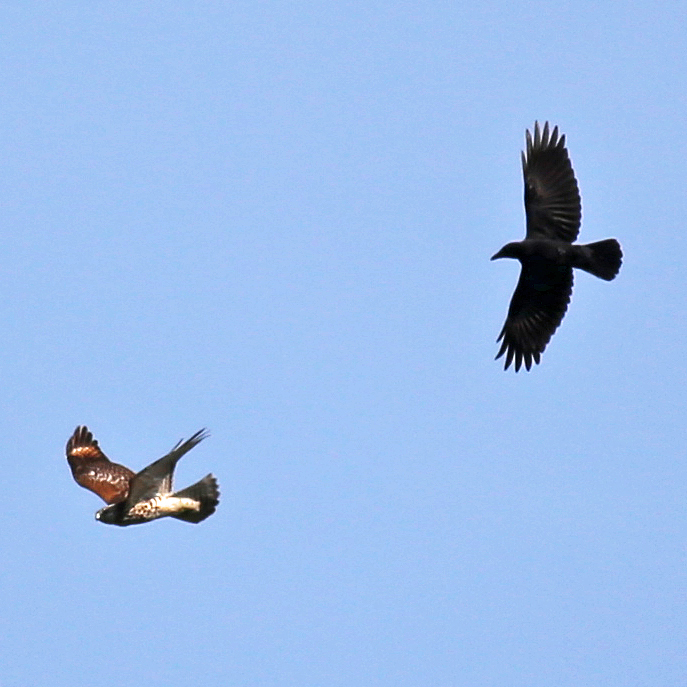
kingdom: Animalia
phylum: Chordata
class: Aves
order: Passeriformes
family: Corvidae
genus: Corvus
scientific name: Corvus brachyrhynchos
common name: American crow
